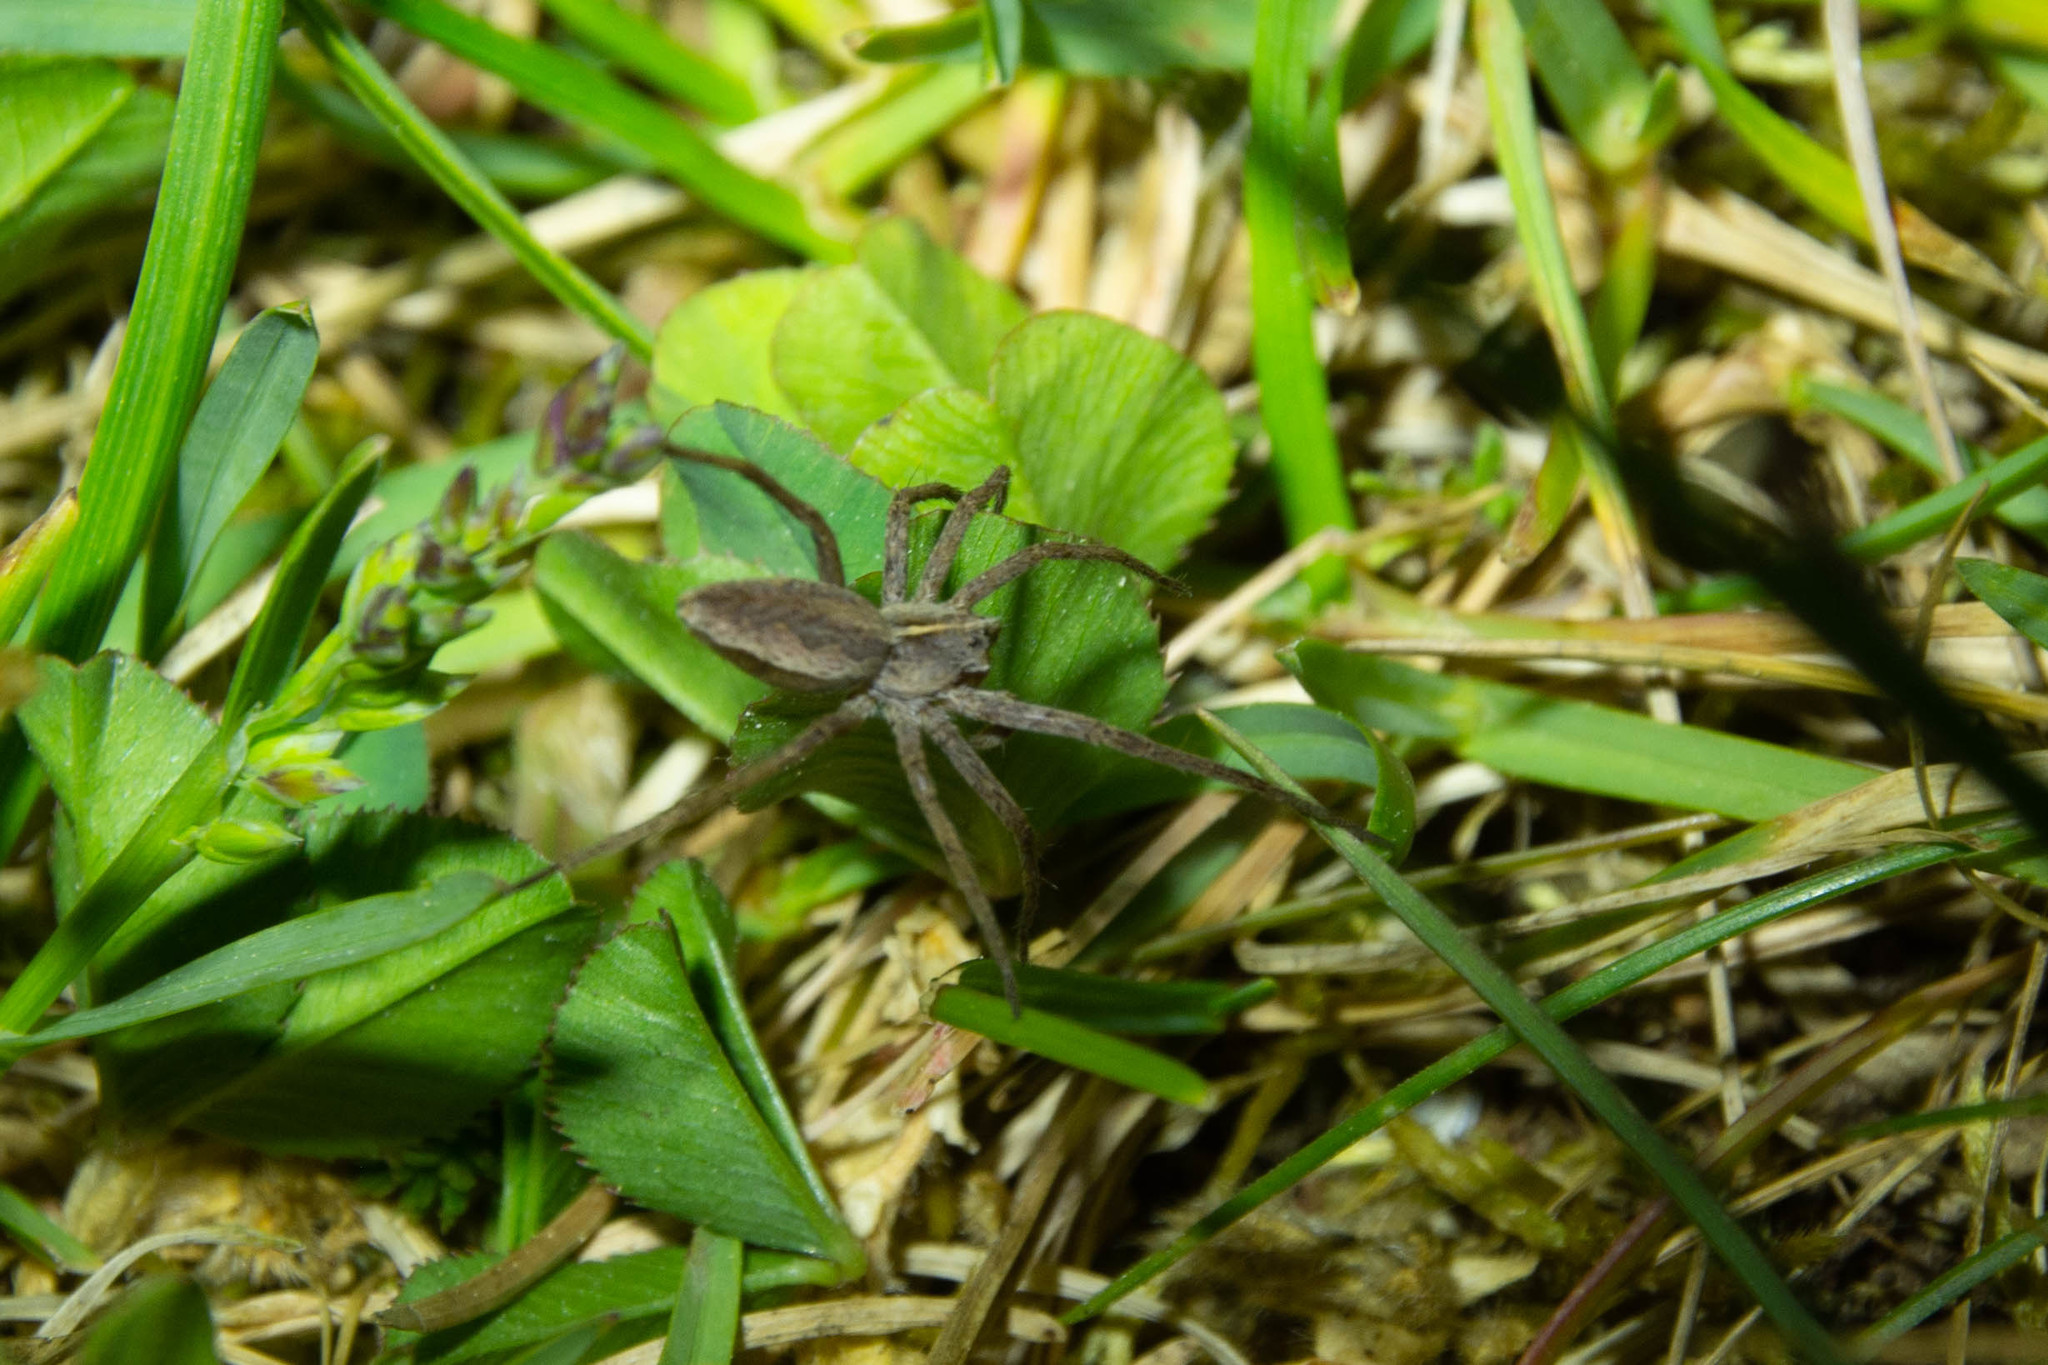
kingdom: Animalia
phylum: Arthropoda
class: Arachnida
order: Araneae
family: Pisauridae
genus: Pisaura
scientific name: Pisaura mirabilis
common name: Tent spider
